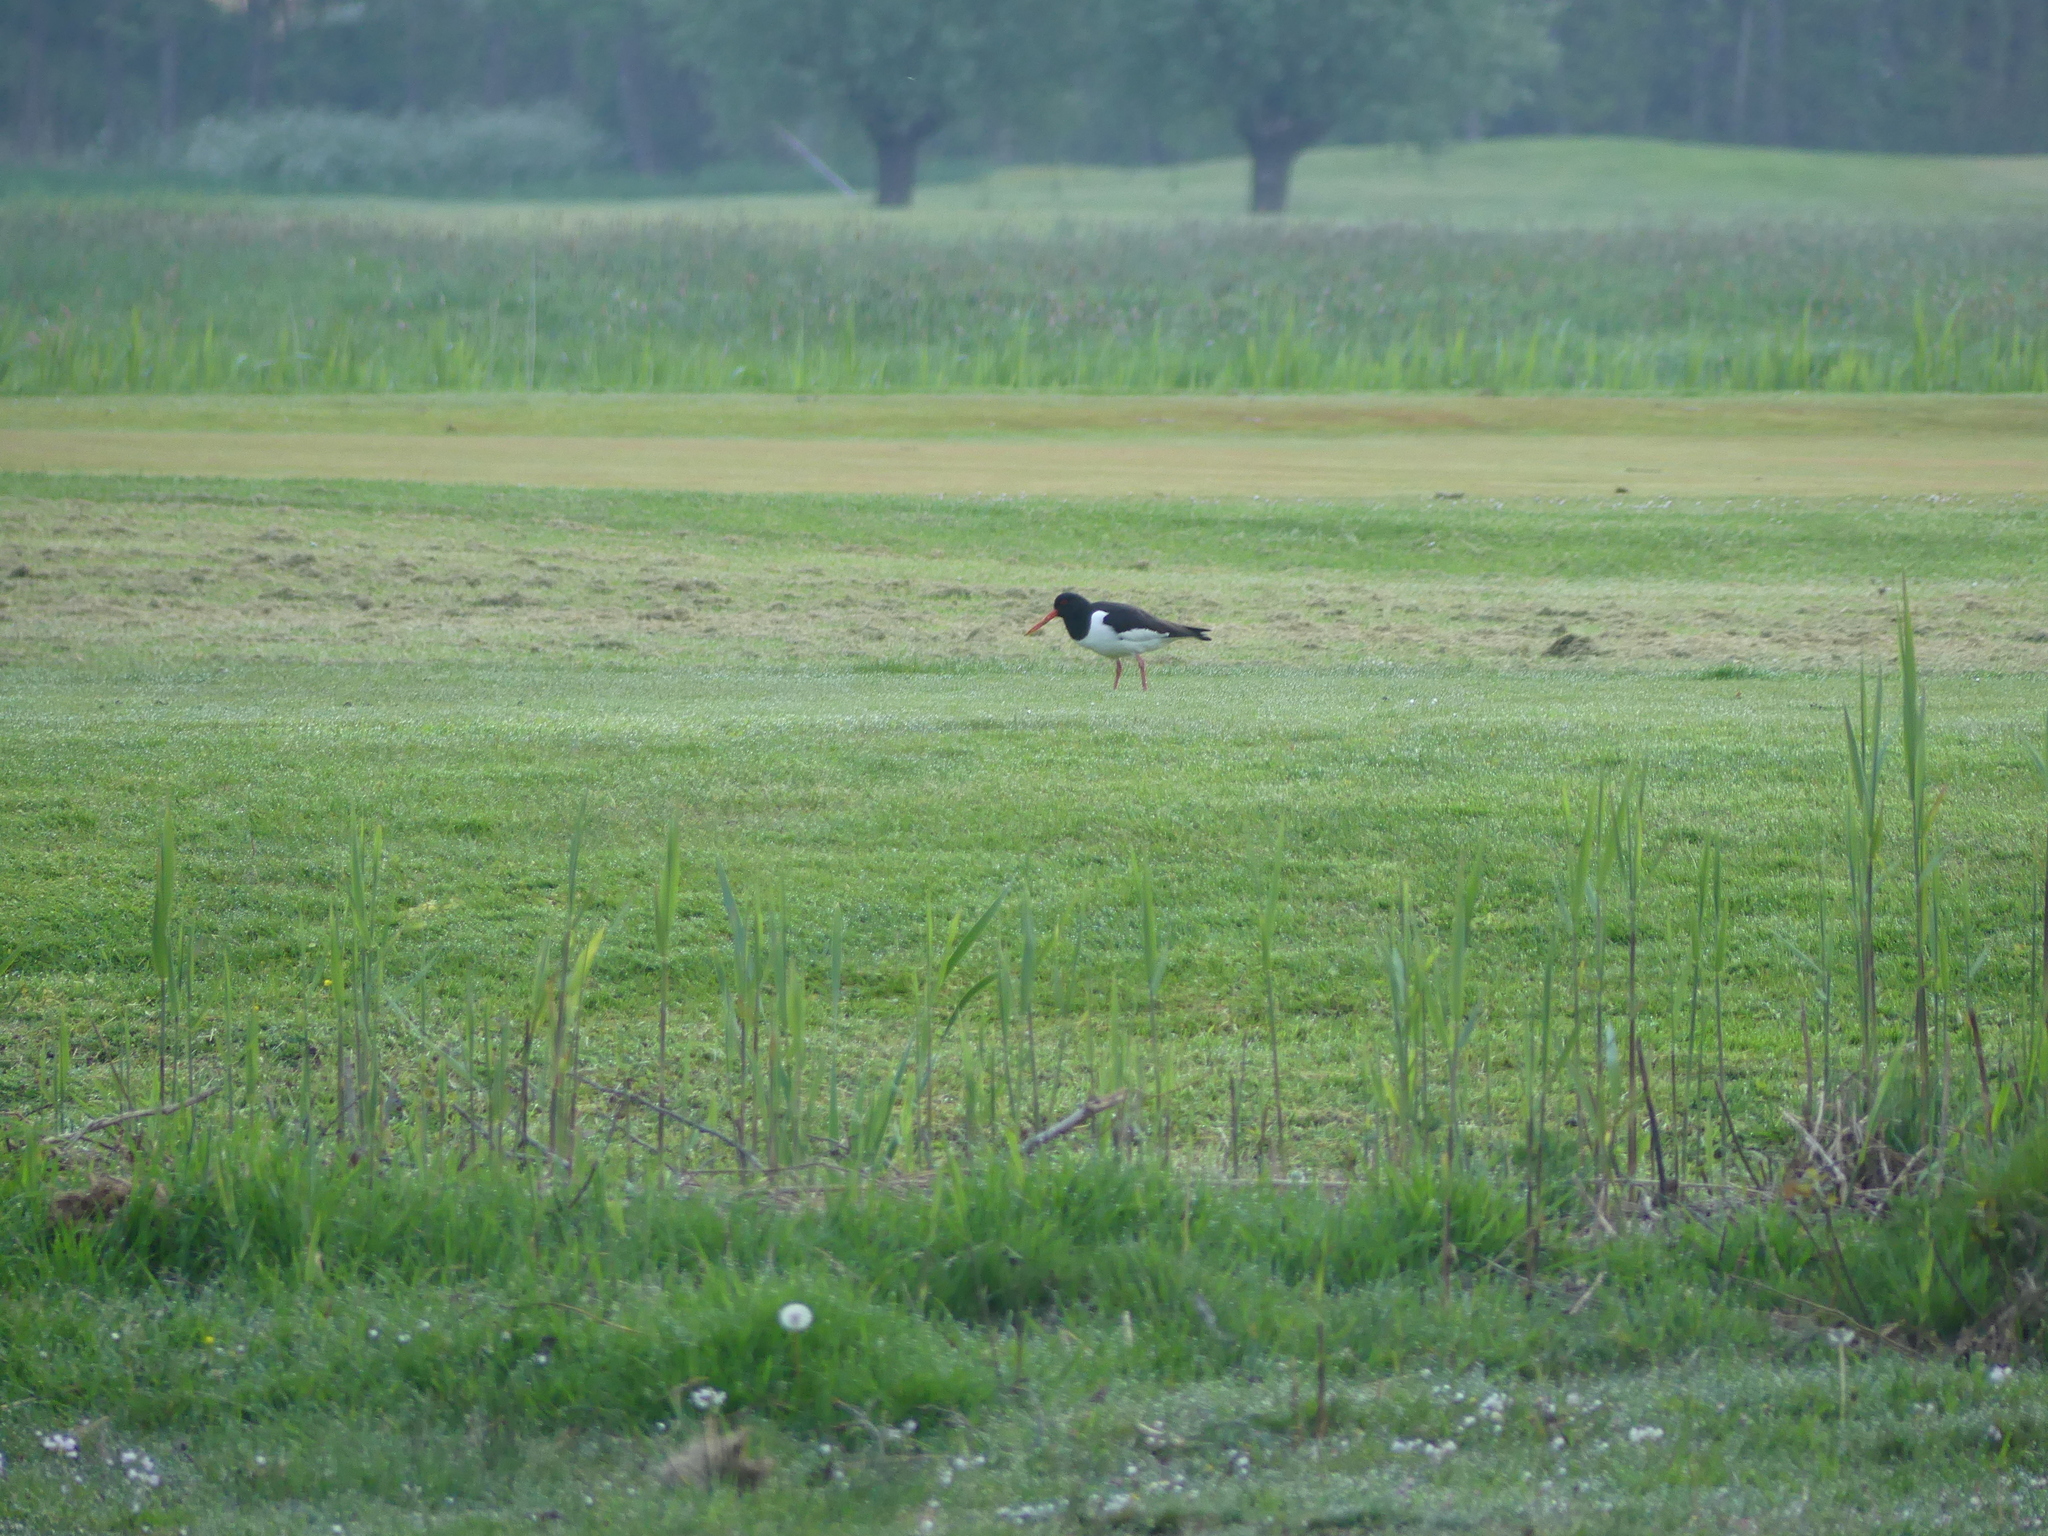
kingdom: Animalia
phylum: Chordata
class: Aves
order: Charadriiformes
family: Haematopodidae
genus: Haematopus
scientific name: Haematopus ostralegus
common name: Eurasian oystercatcher
